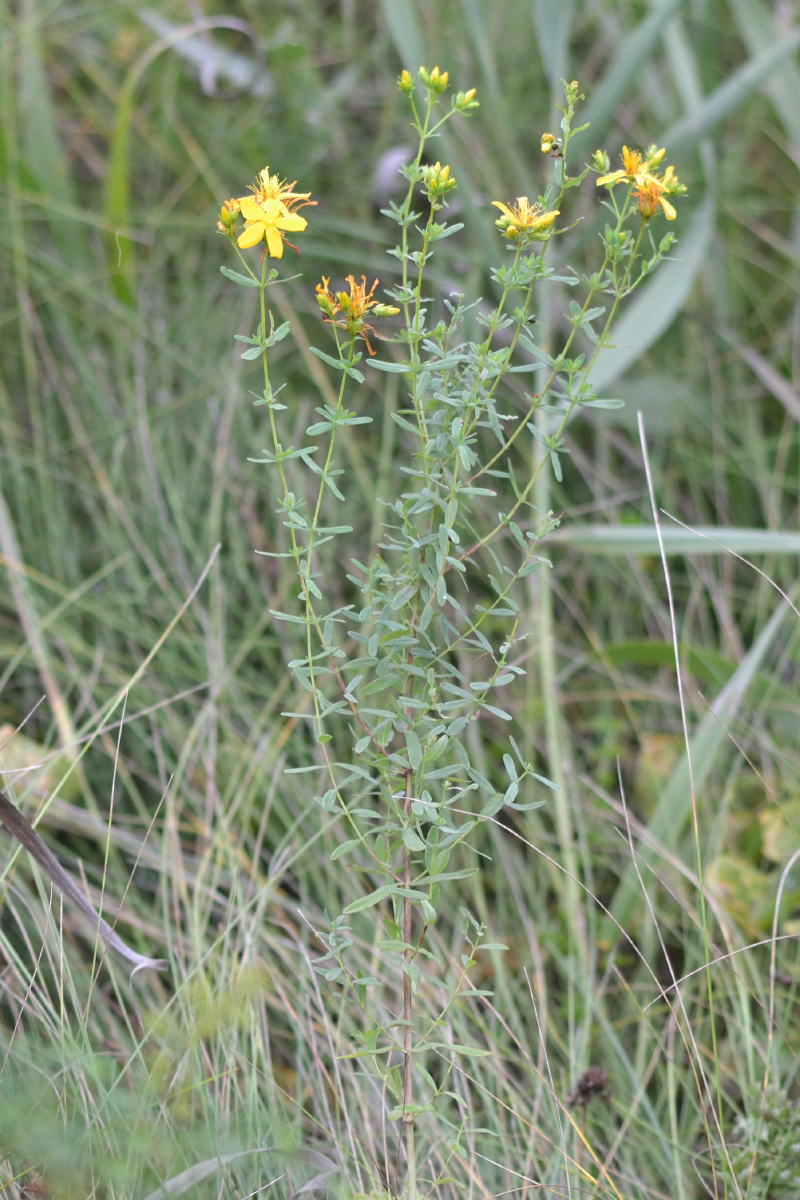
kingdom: Plantae
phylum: Tracheophyta
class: Magnoliopsida
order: Malpighiales
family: Hypericaceae
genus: Hypericum
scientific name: Hypericum perforatum
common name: Common st. johnswort
